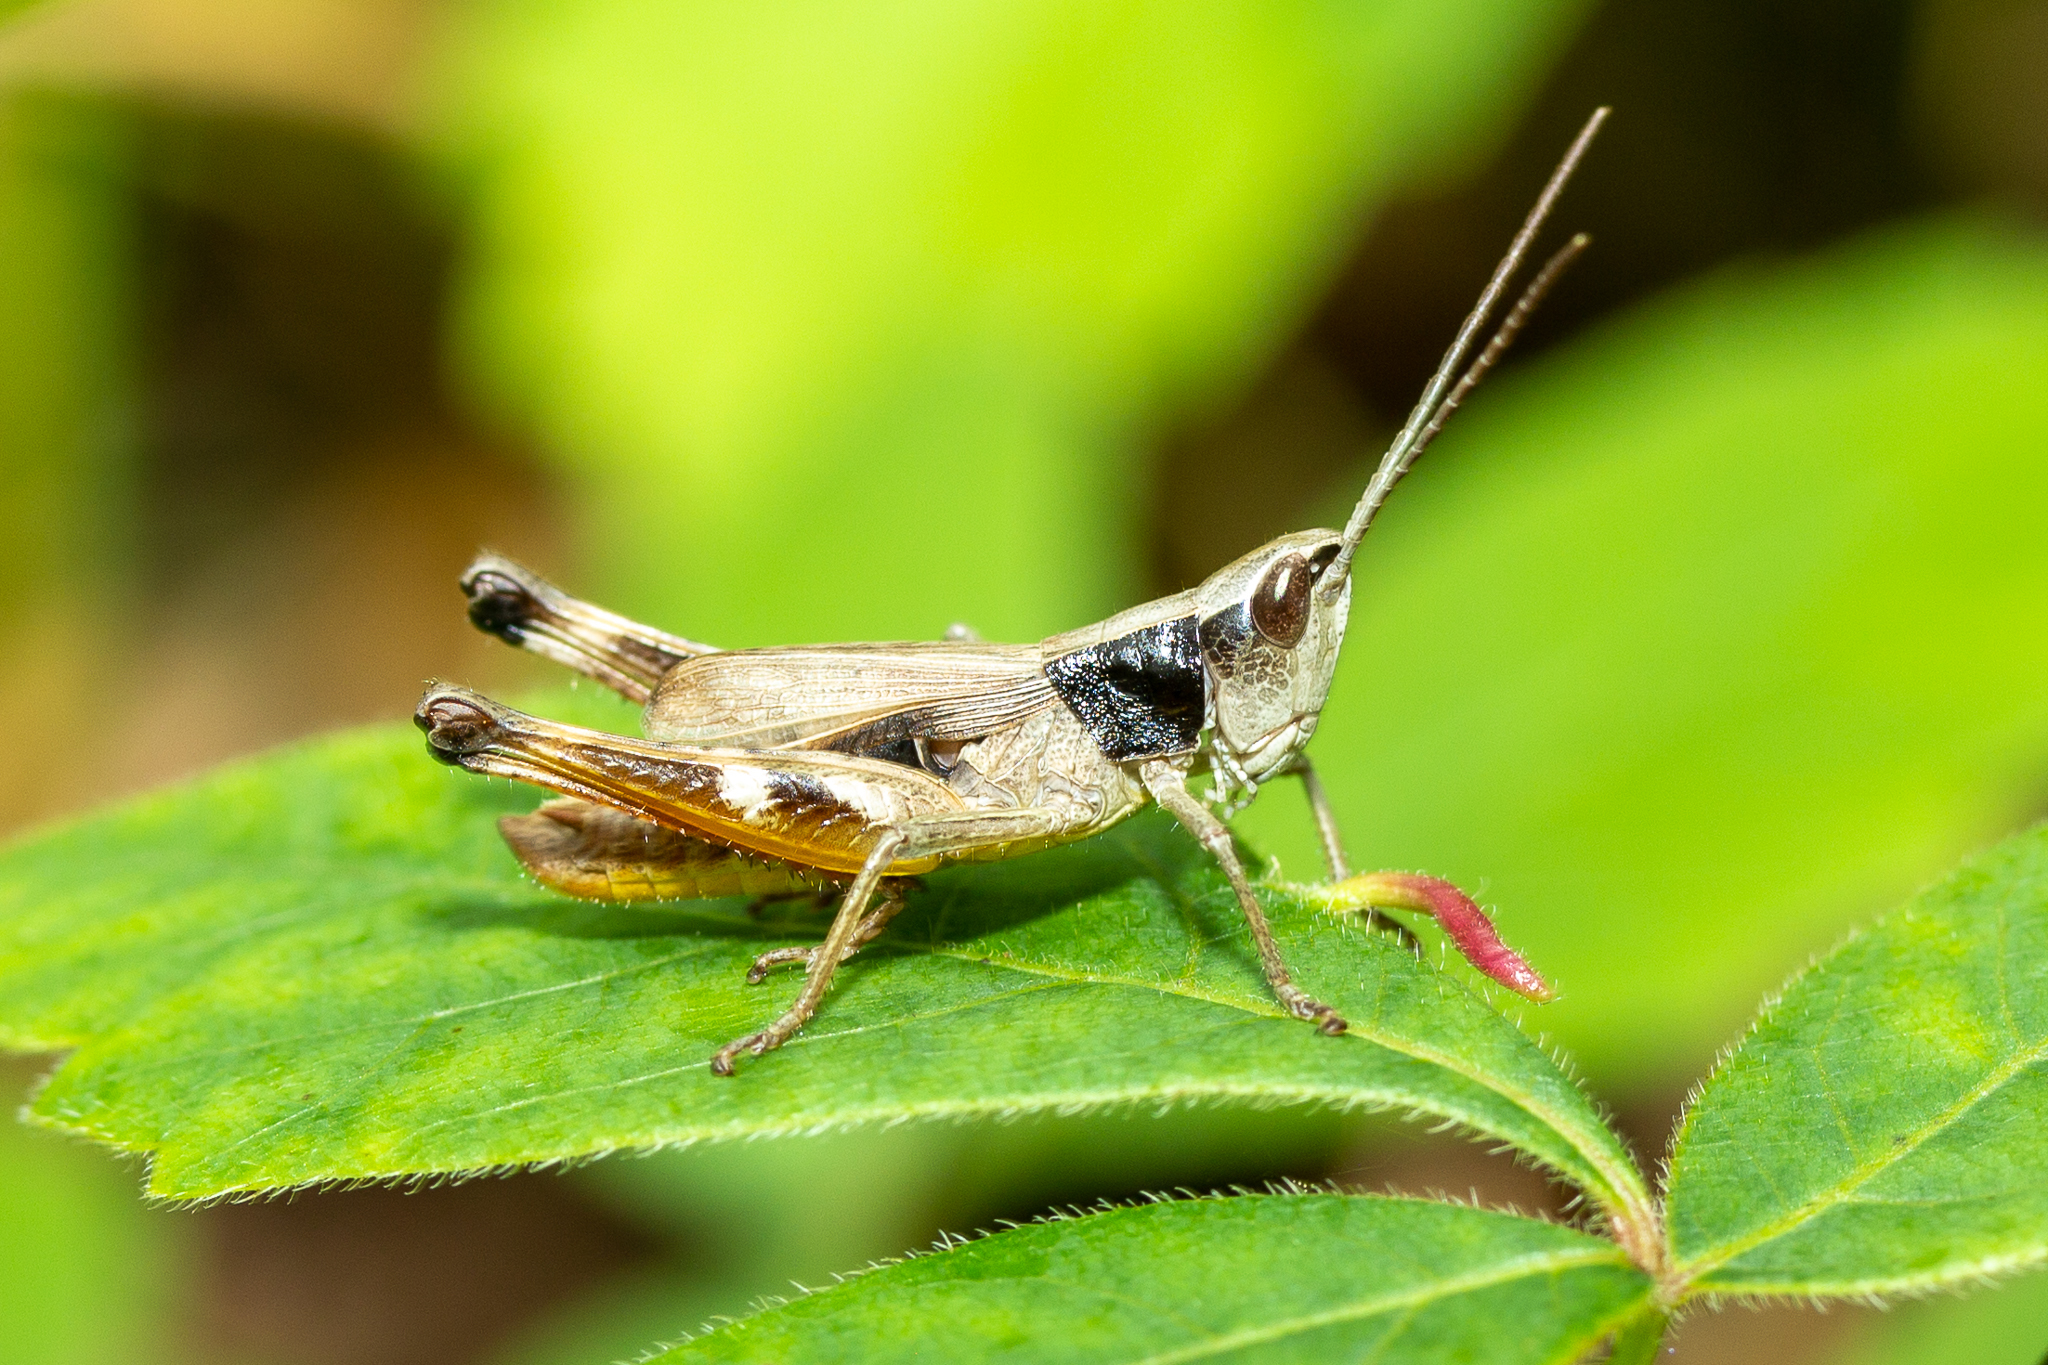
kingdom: Animalia
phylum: Arthropoda
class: Insecta
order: Orthoptera
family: Acrididae
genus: Chloealtis
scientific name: Chloealtis conspersa
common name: Sprinkled broad-winged grasshopper
